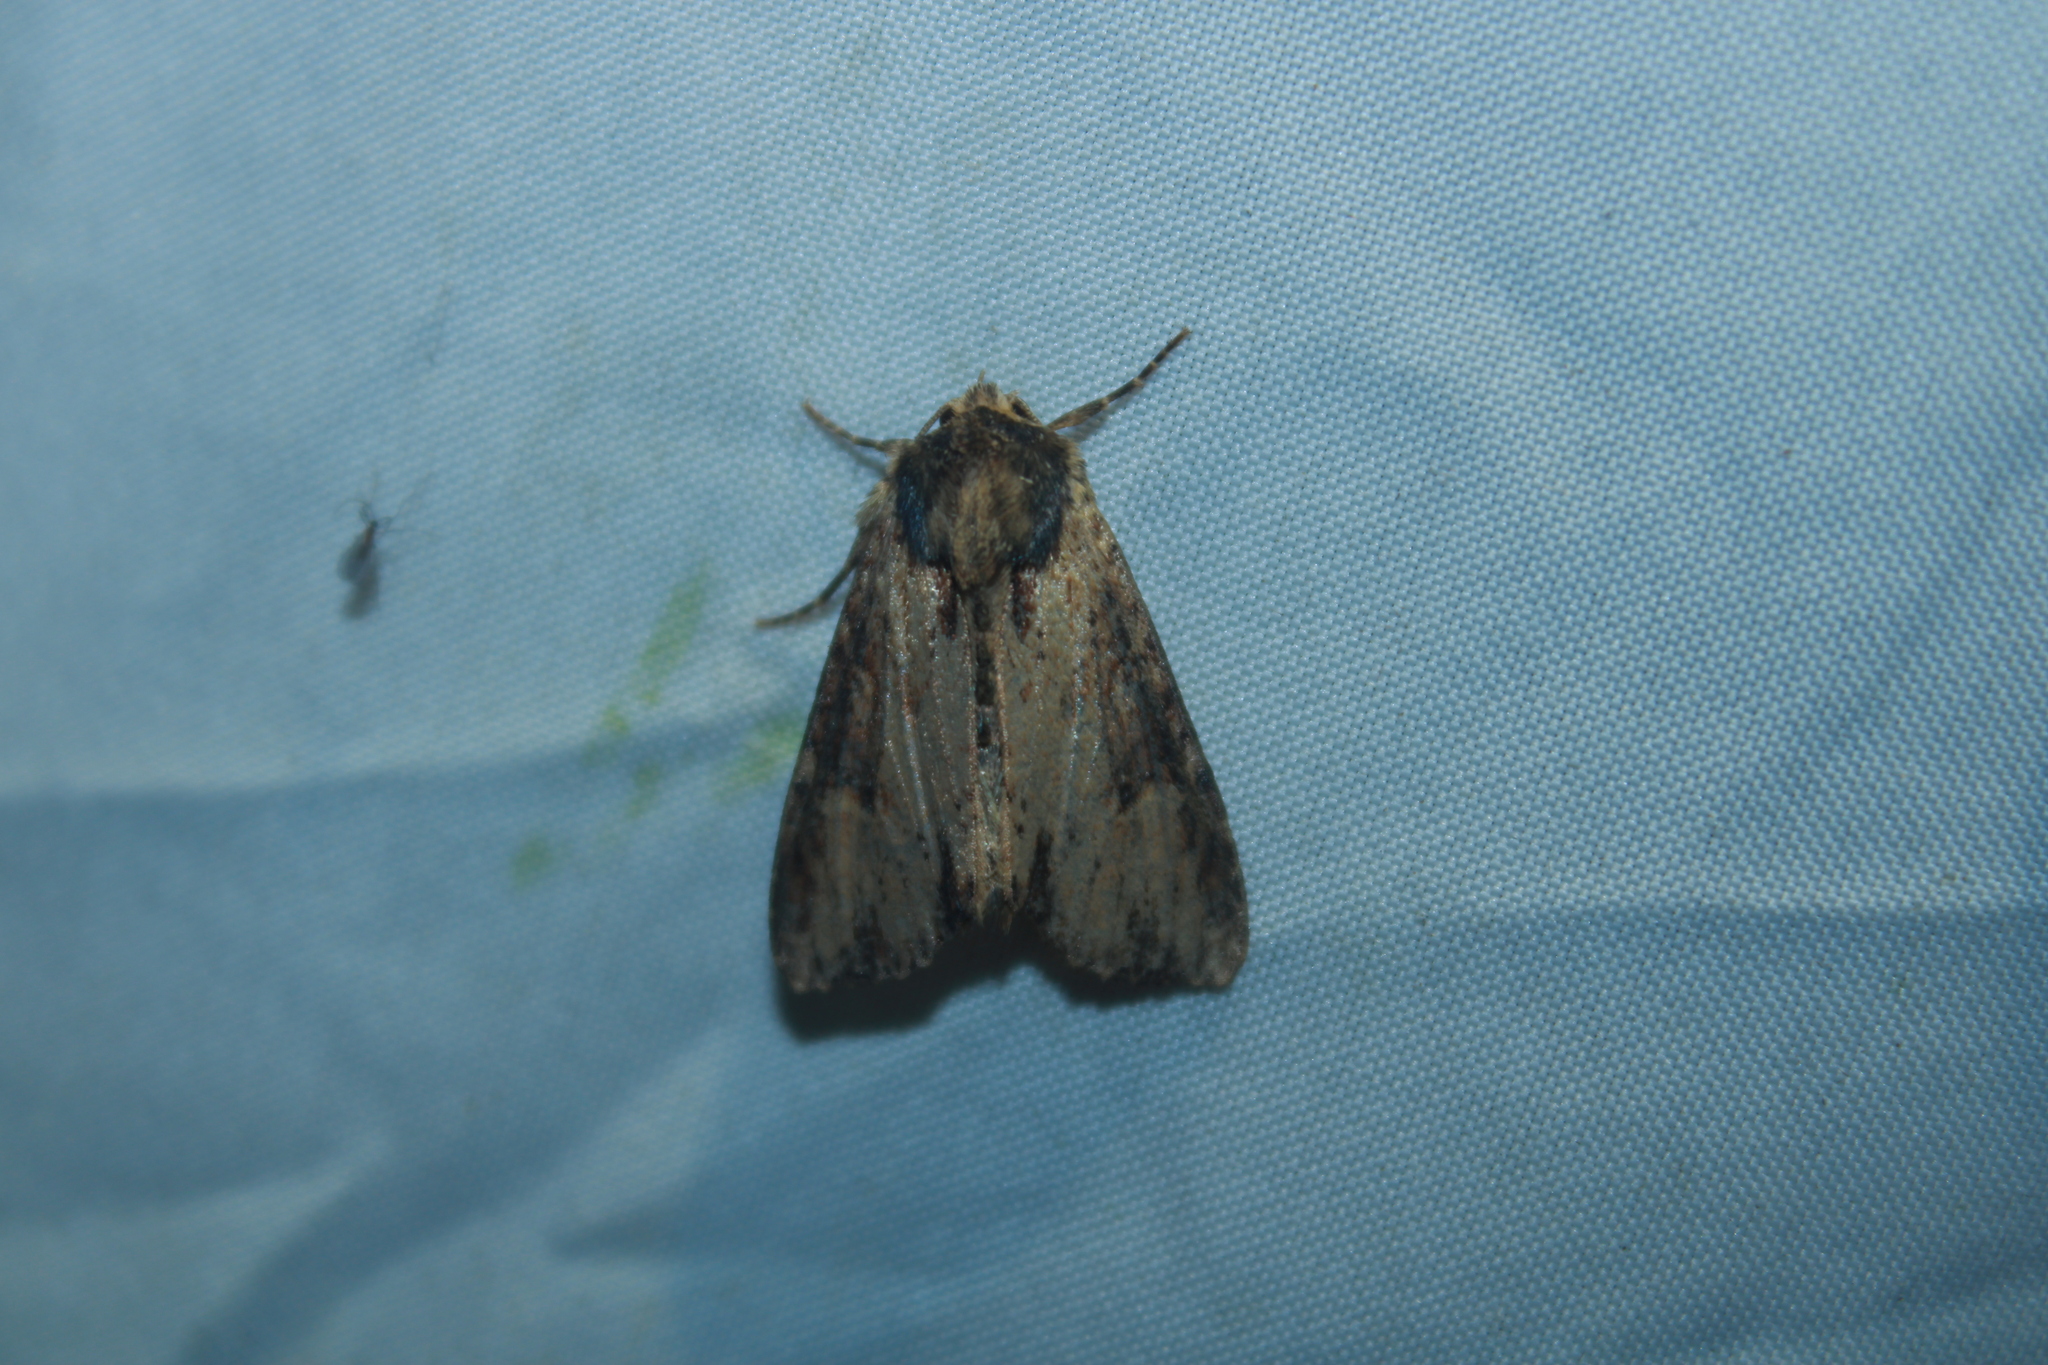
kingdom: Animalia
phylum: Arthropoda
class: Insecta
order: Lepidoptera
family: Noctuidae
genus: Apamea
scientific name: Apamea vultuosa
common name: Airy apamea moth
